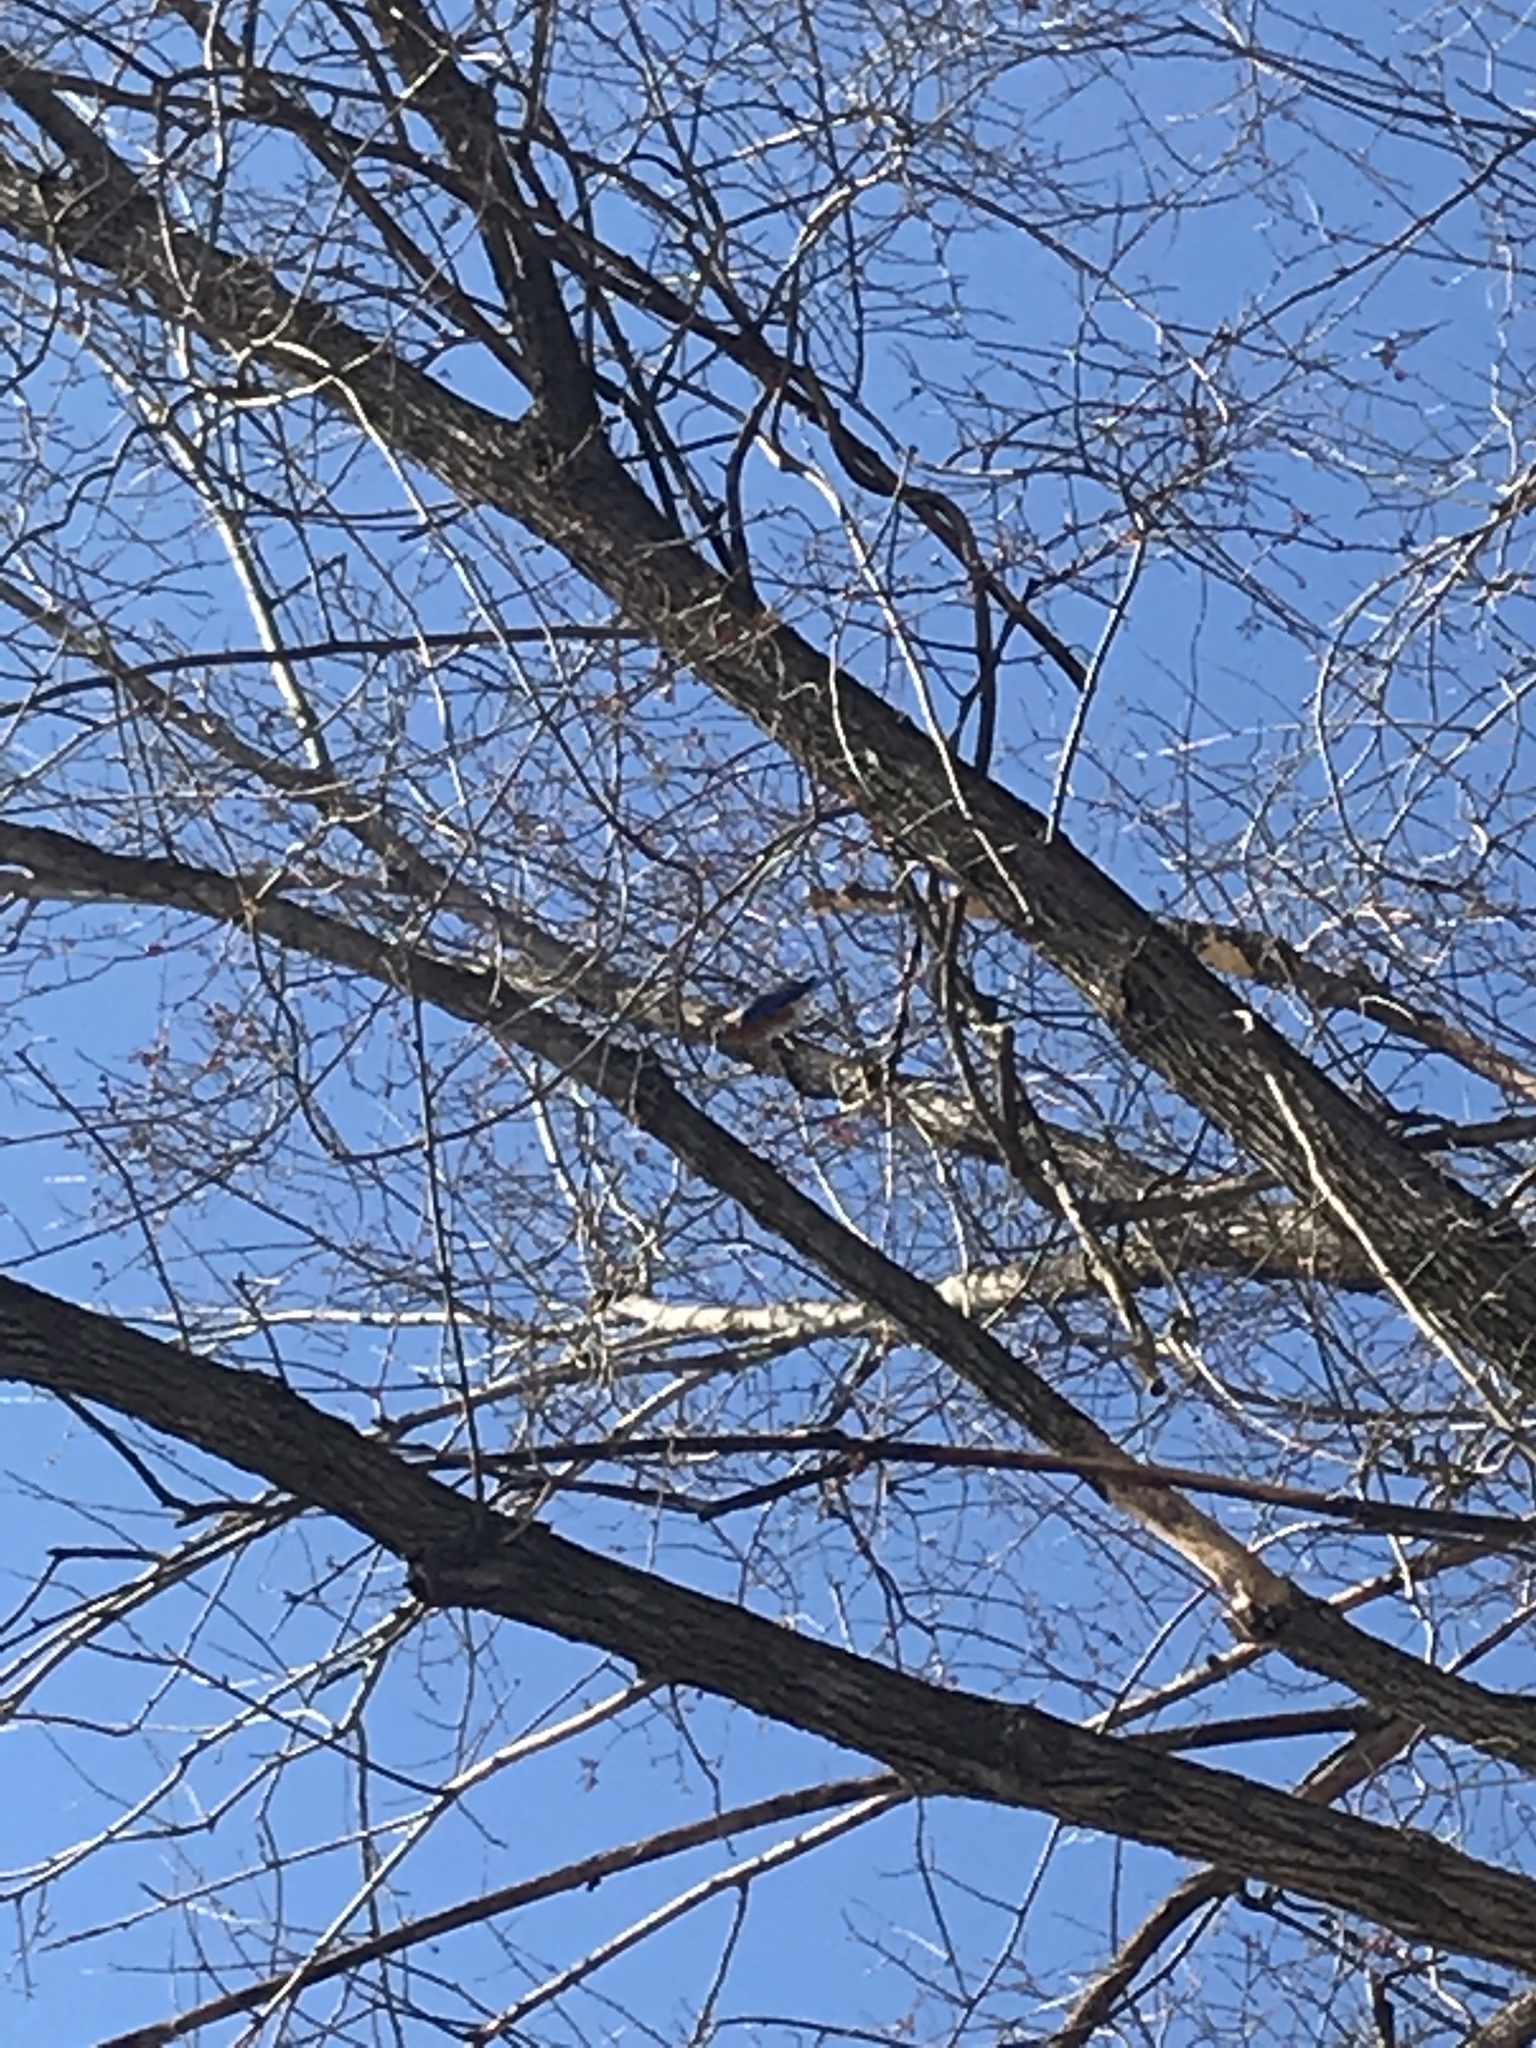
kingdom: Animalia
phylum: Chordata
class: Aves
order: Passeriformes
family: Turdidae
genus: Sialia
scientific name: Sialia sialis
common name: Eastern bluebird
